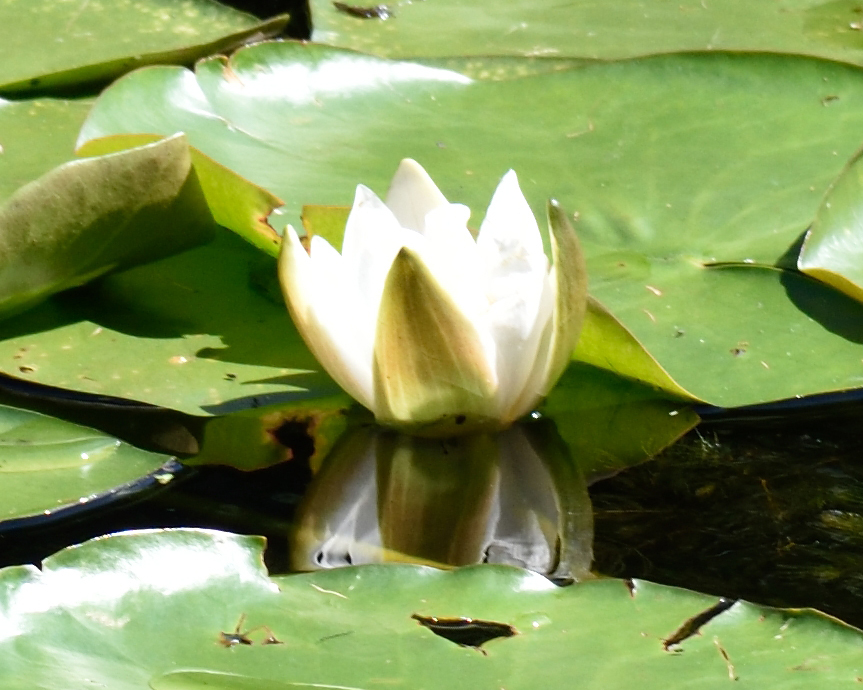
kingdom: Plantae
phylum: Tracheophyta
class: Magnoliopsida
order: Nymphaeales
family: Nymphaeaceae
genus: Nymphaea
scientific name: Nymphaea candida
